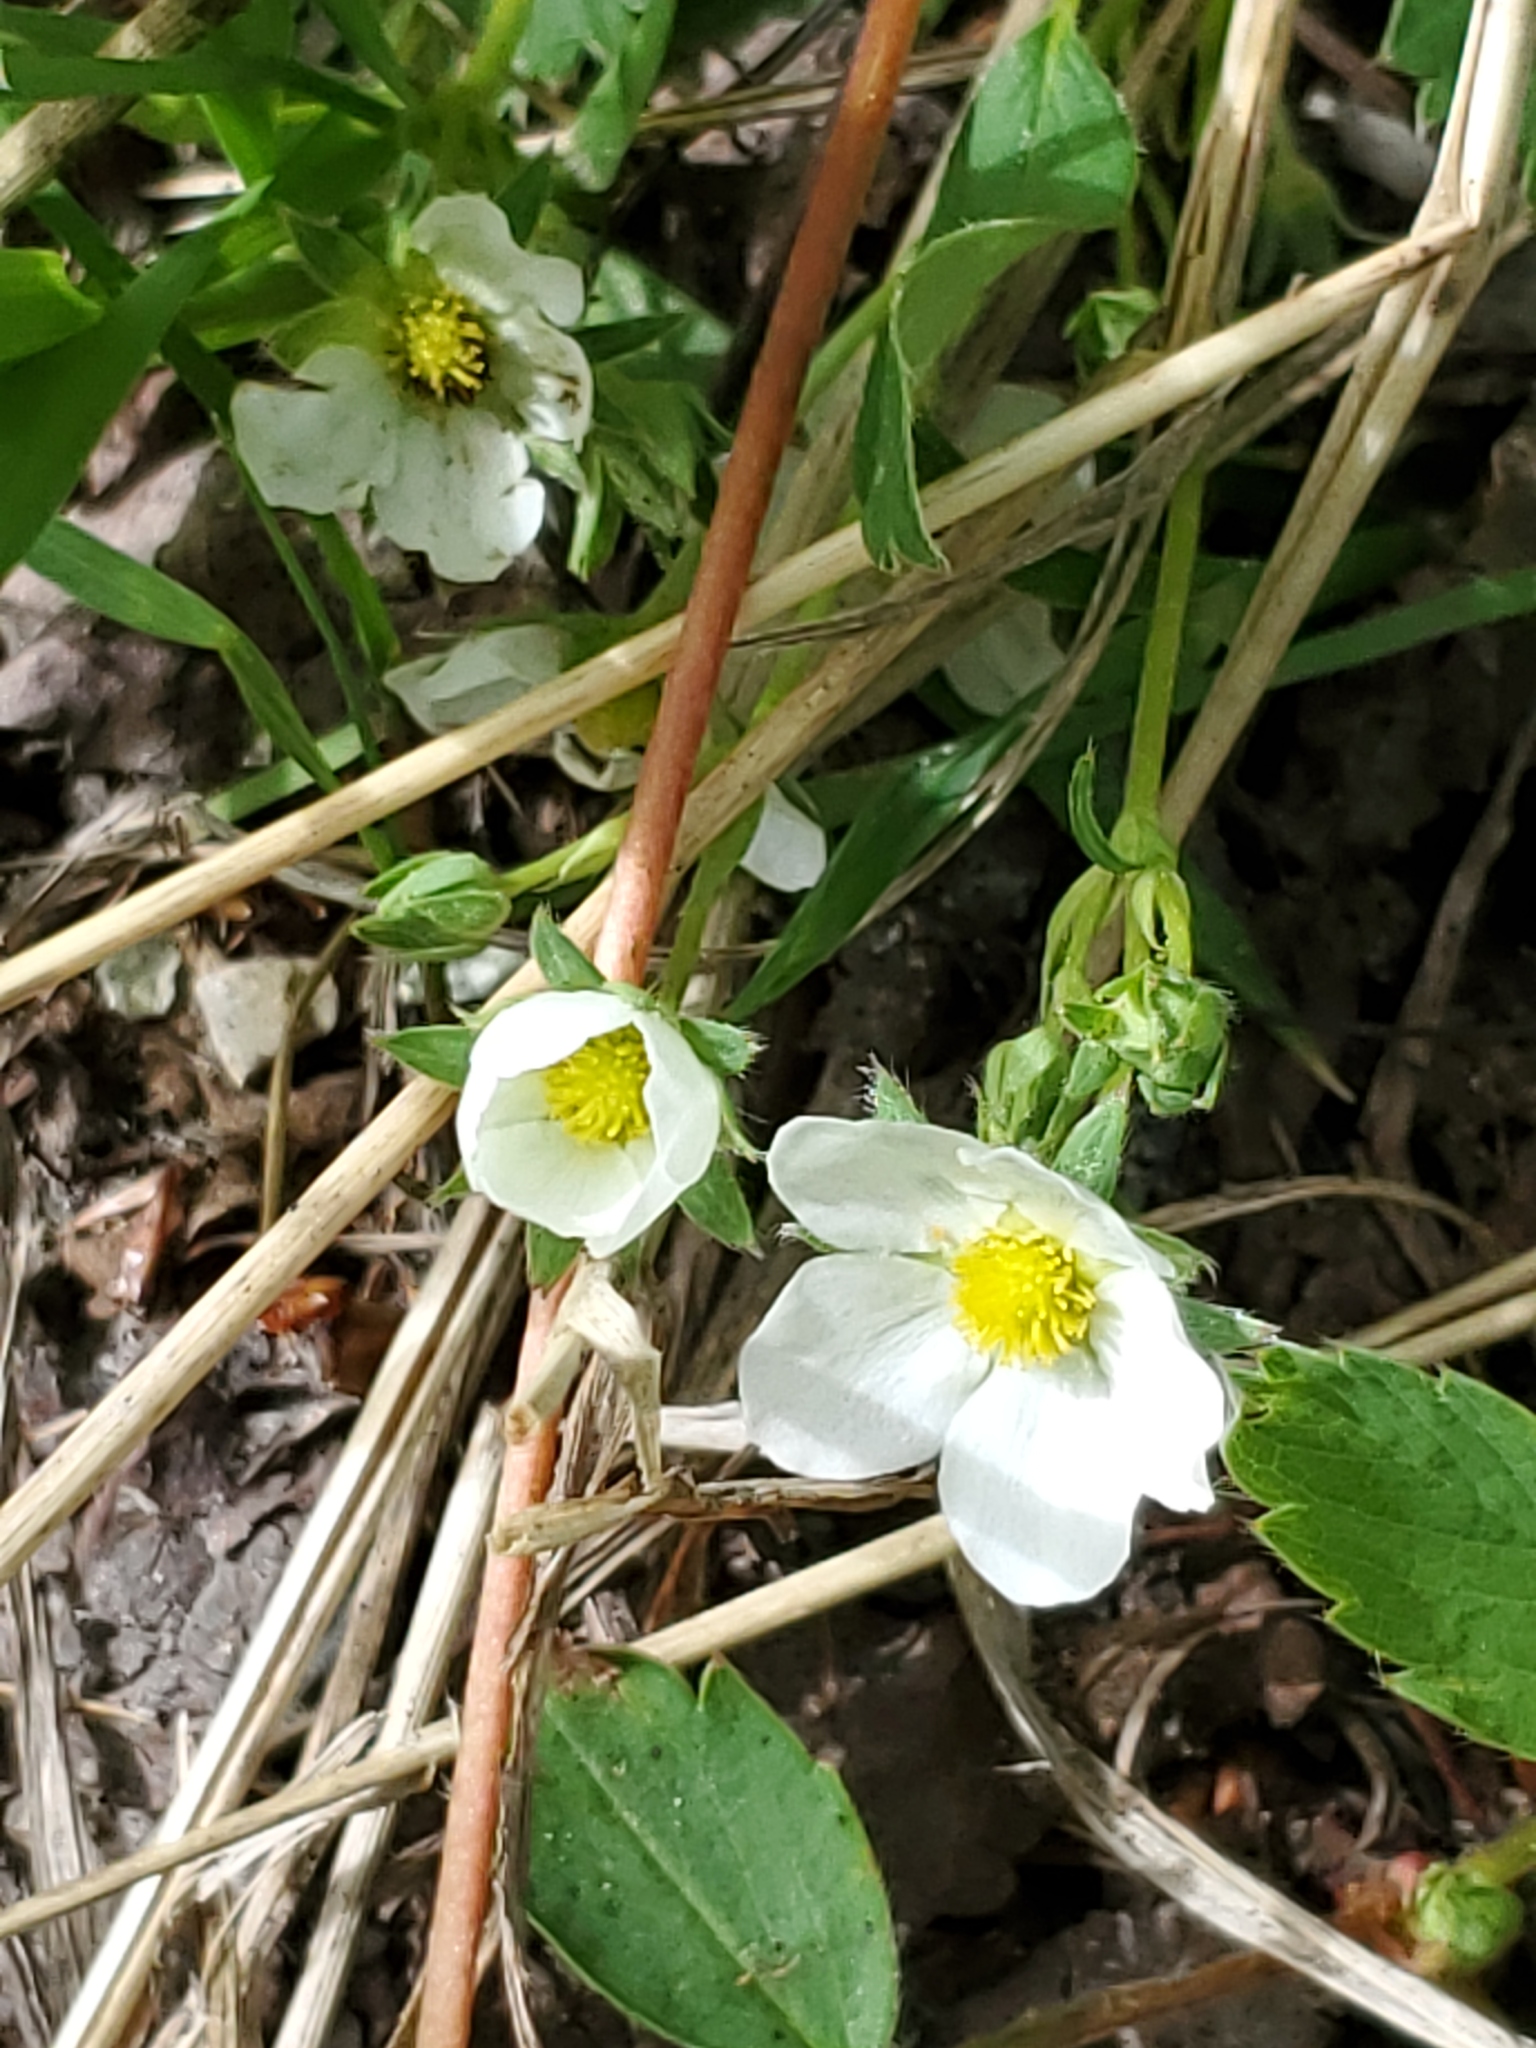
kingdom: Plantae
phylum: Tracheophyta
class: Magnoliopsida
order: Rosales
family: Rosaceae
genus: Fragaria
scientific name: Fragaria virginiana
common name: Thickleaved wild strawberry
